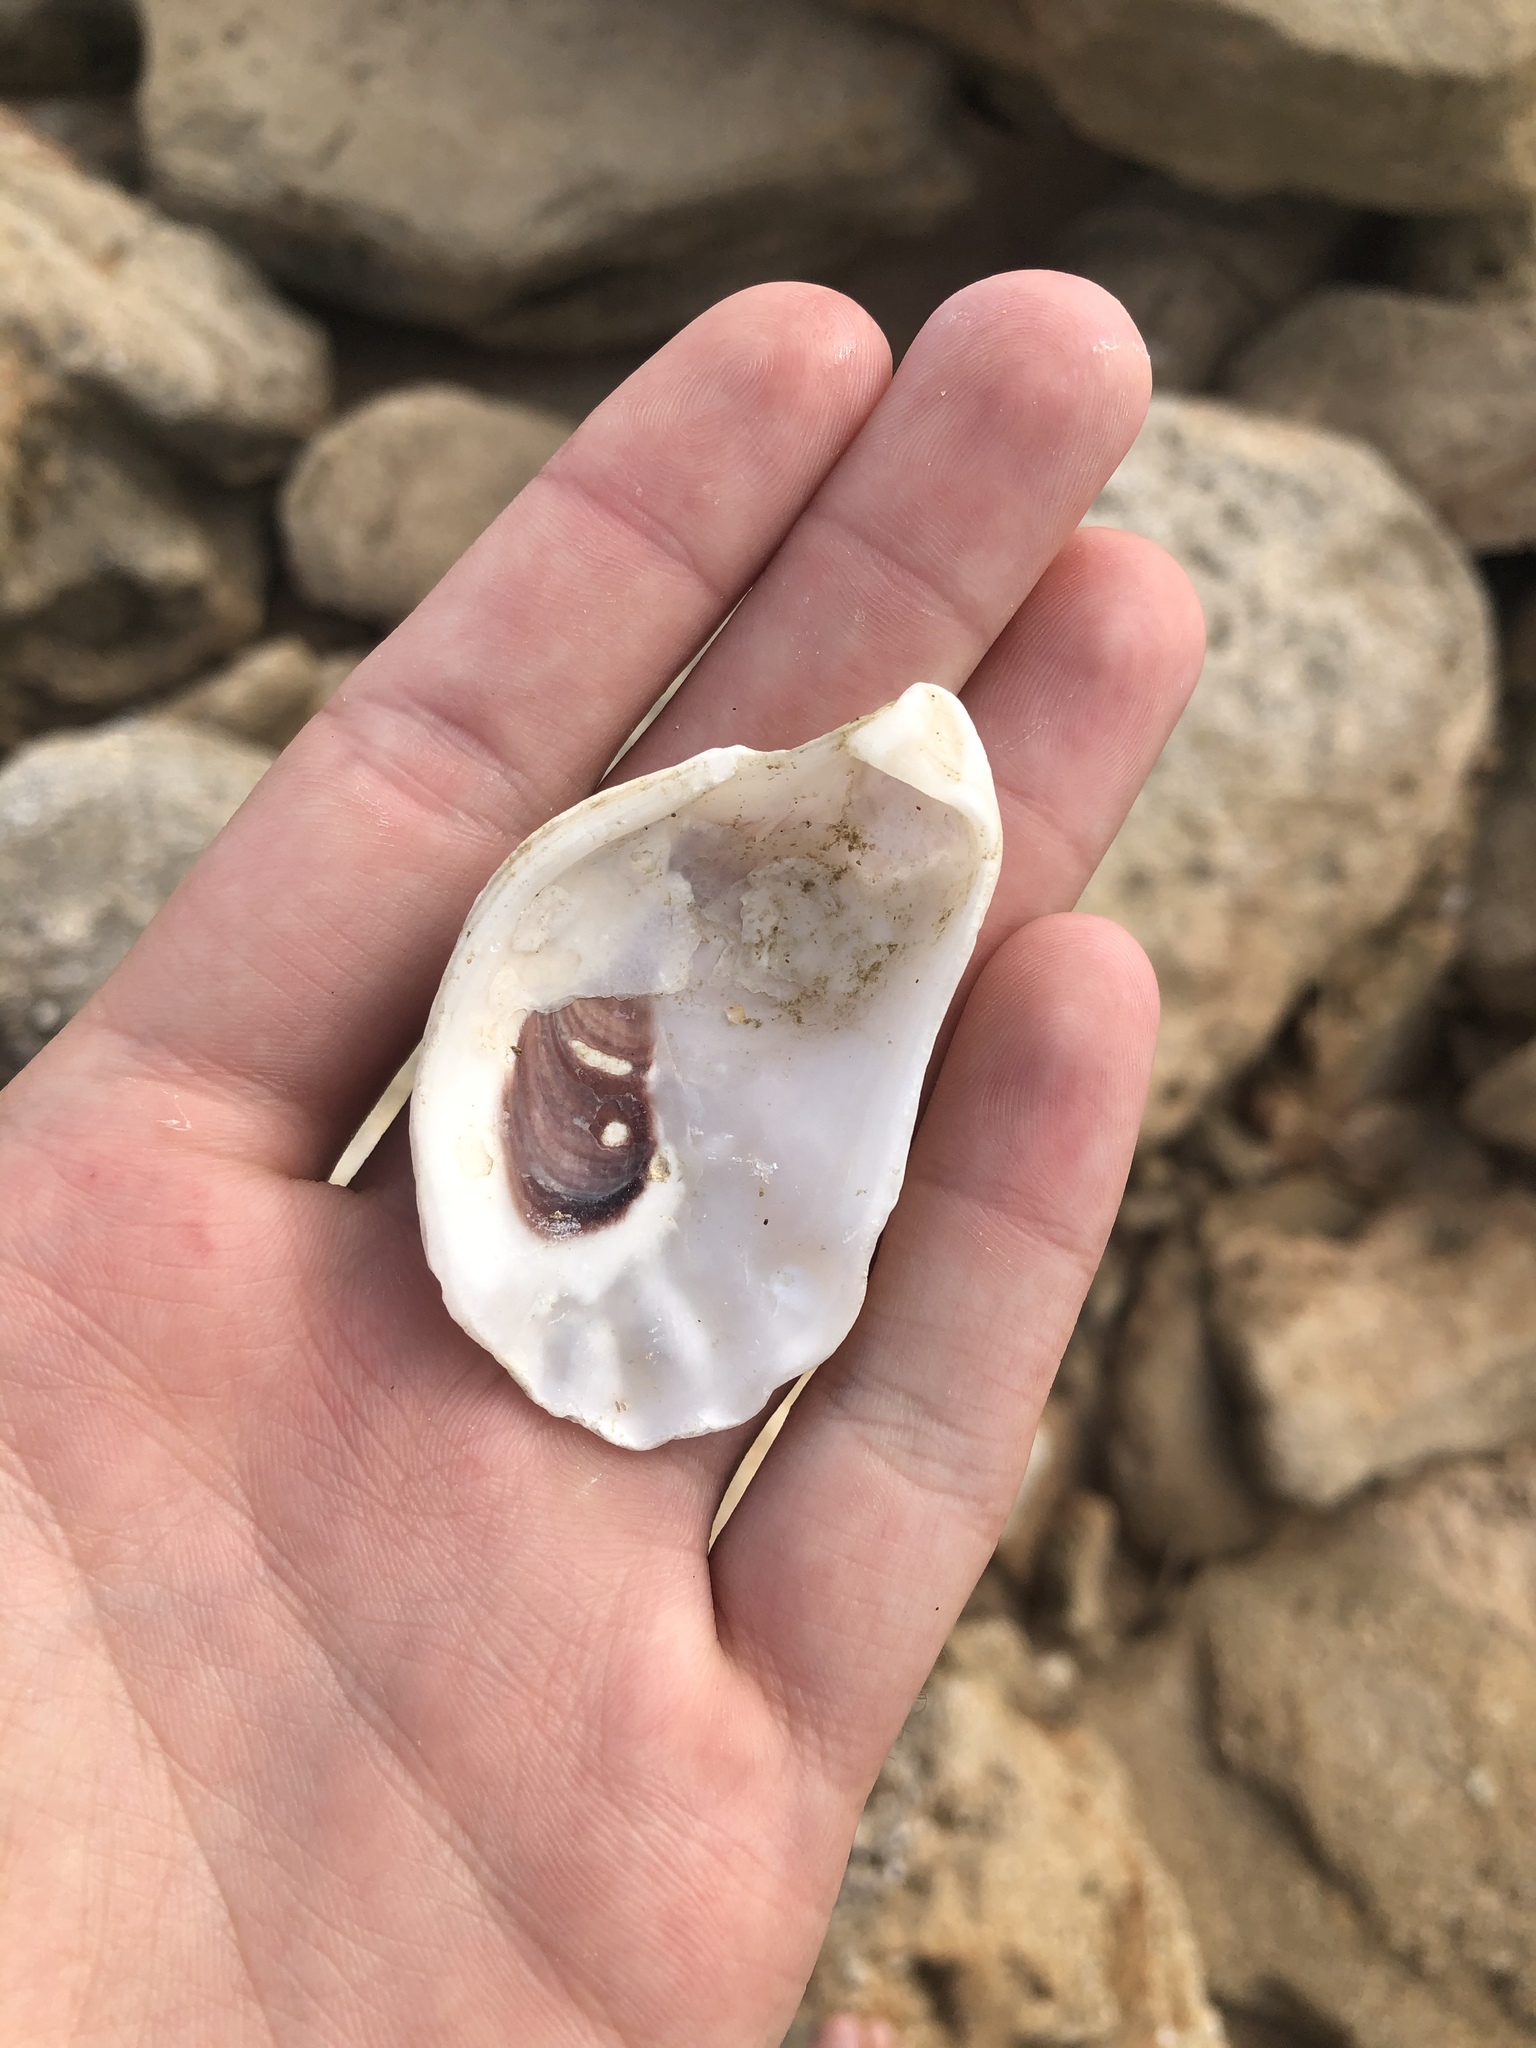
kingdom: Animalia
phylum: Mollusca
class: Bivalvia
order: Ostreida
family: Ostreidae
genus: Crassostrea
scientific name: Crassostrea virginica
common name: American oyster
